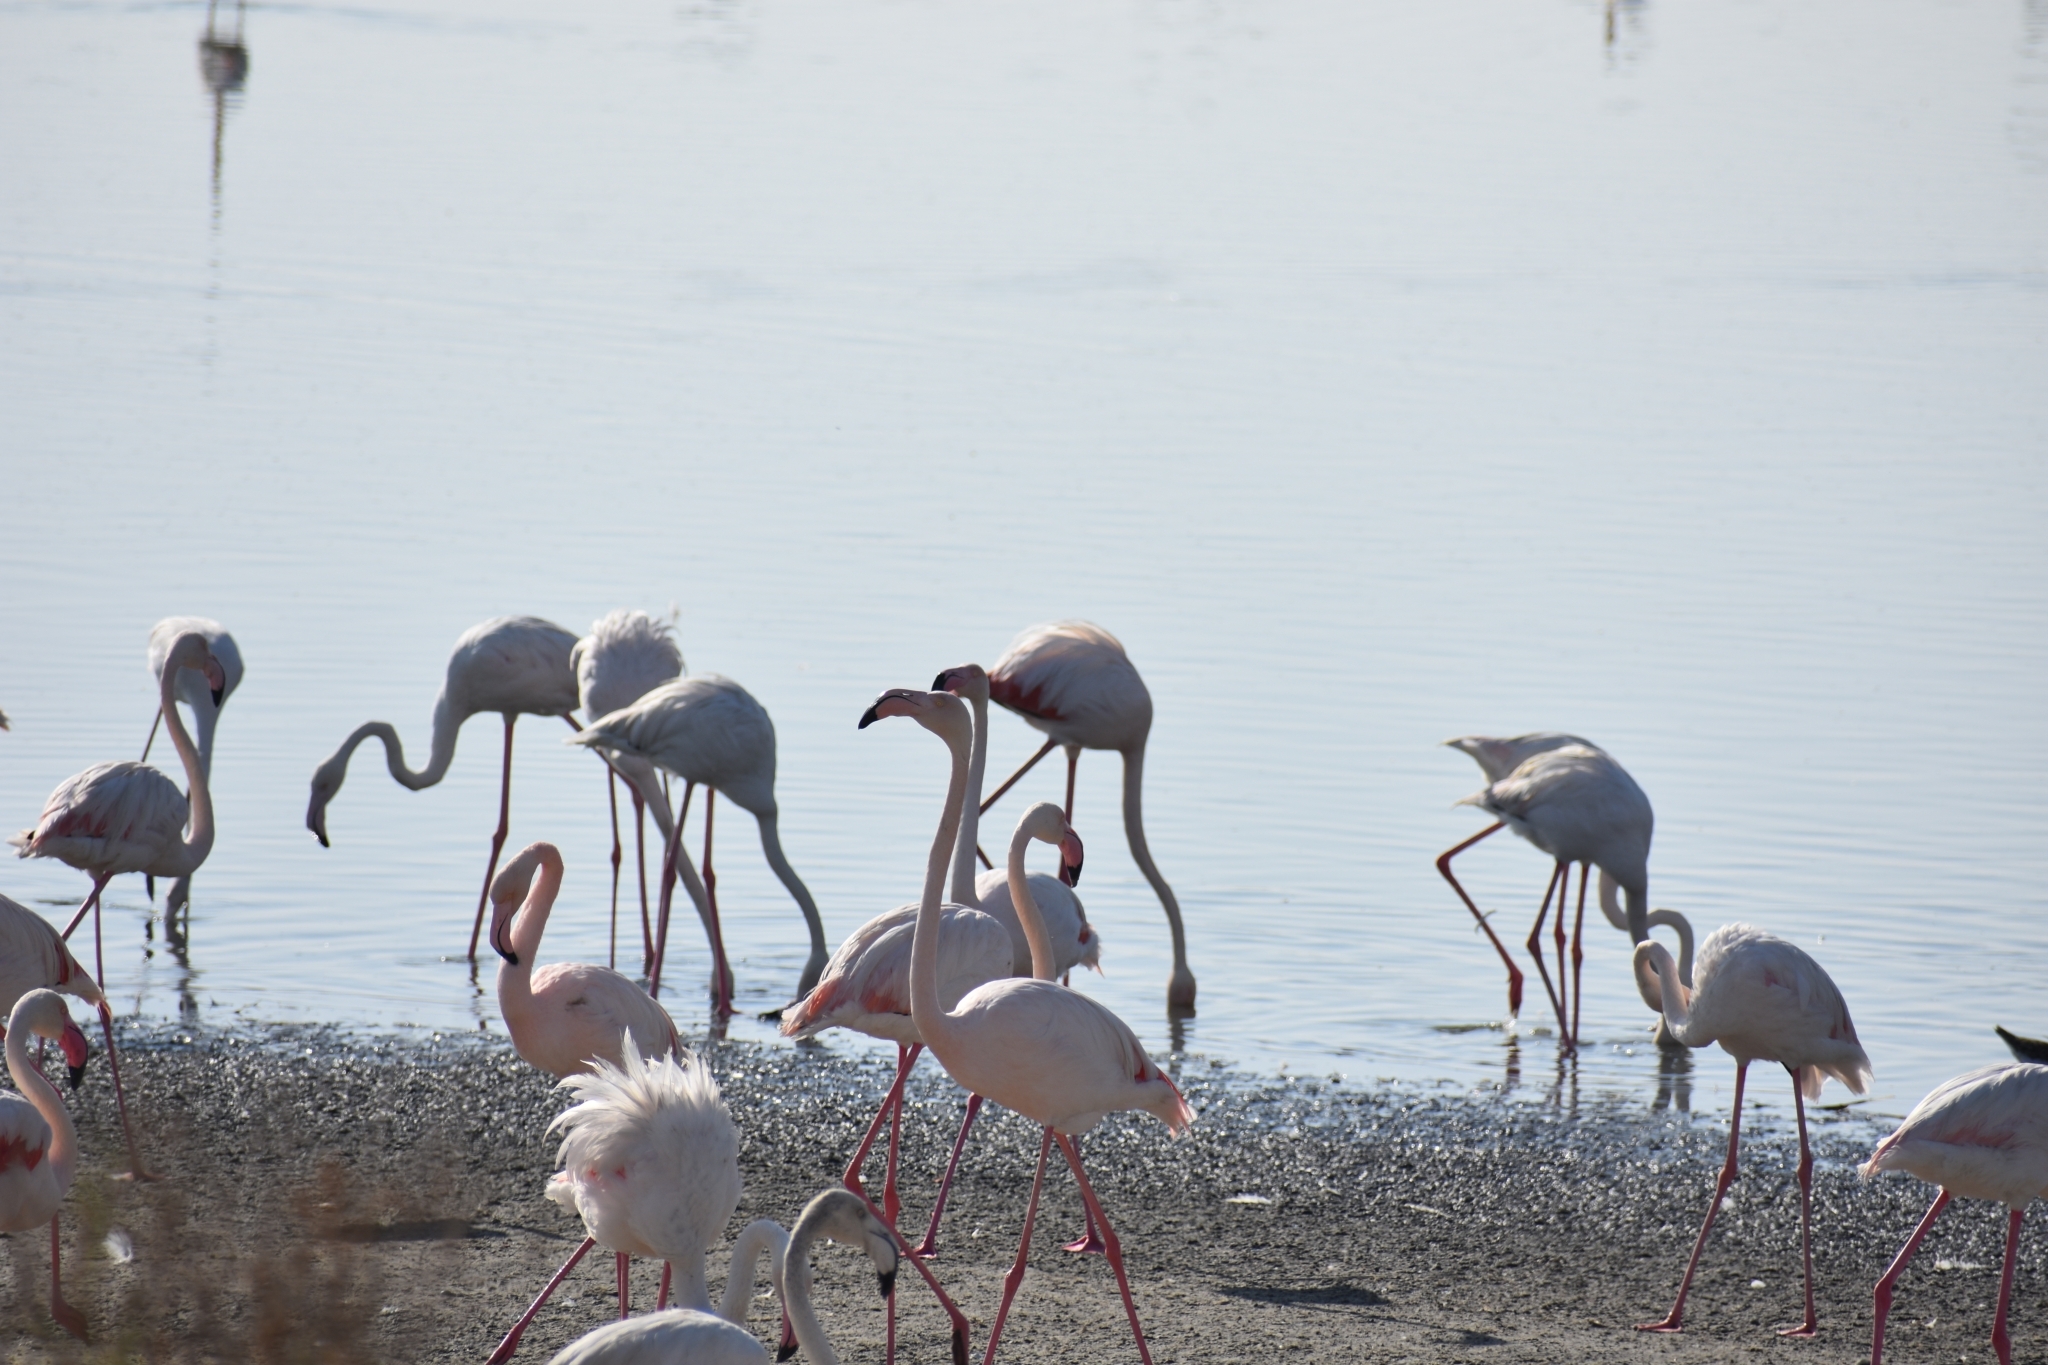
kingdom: Animalia
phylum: Chordata
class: Aves
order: Phoenicopteriformes
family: Phoenicopteridae
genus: Phoenicopterus
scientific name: Phoenicopterus roseus
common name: Greater flamingo
